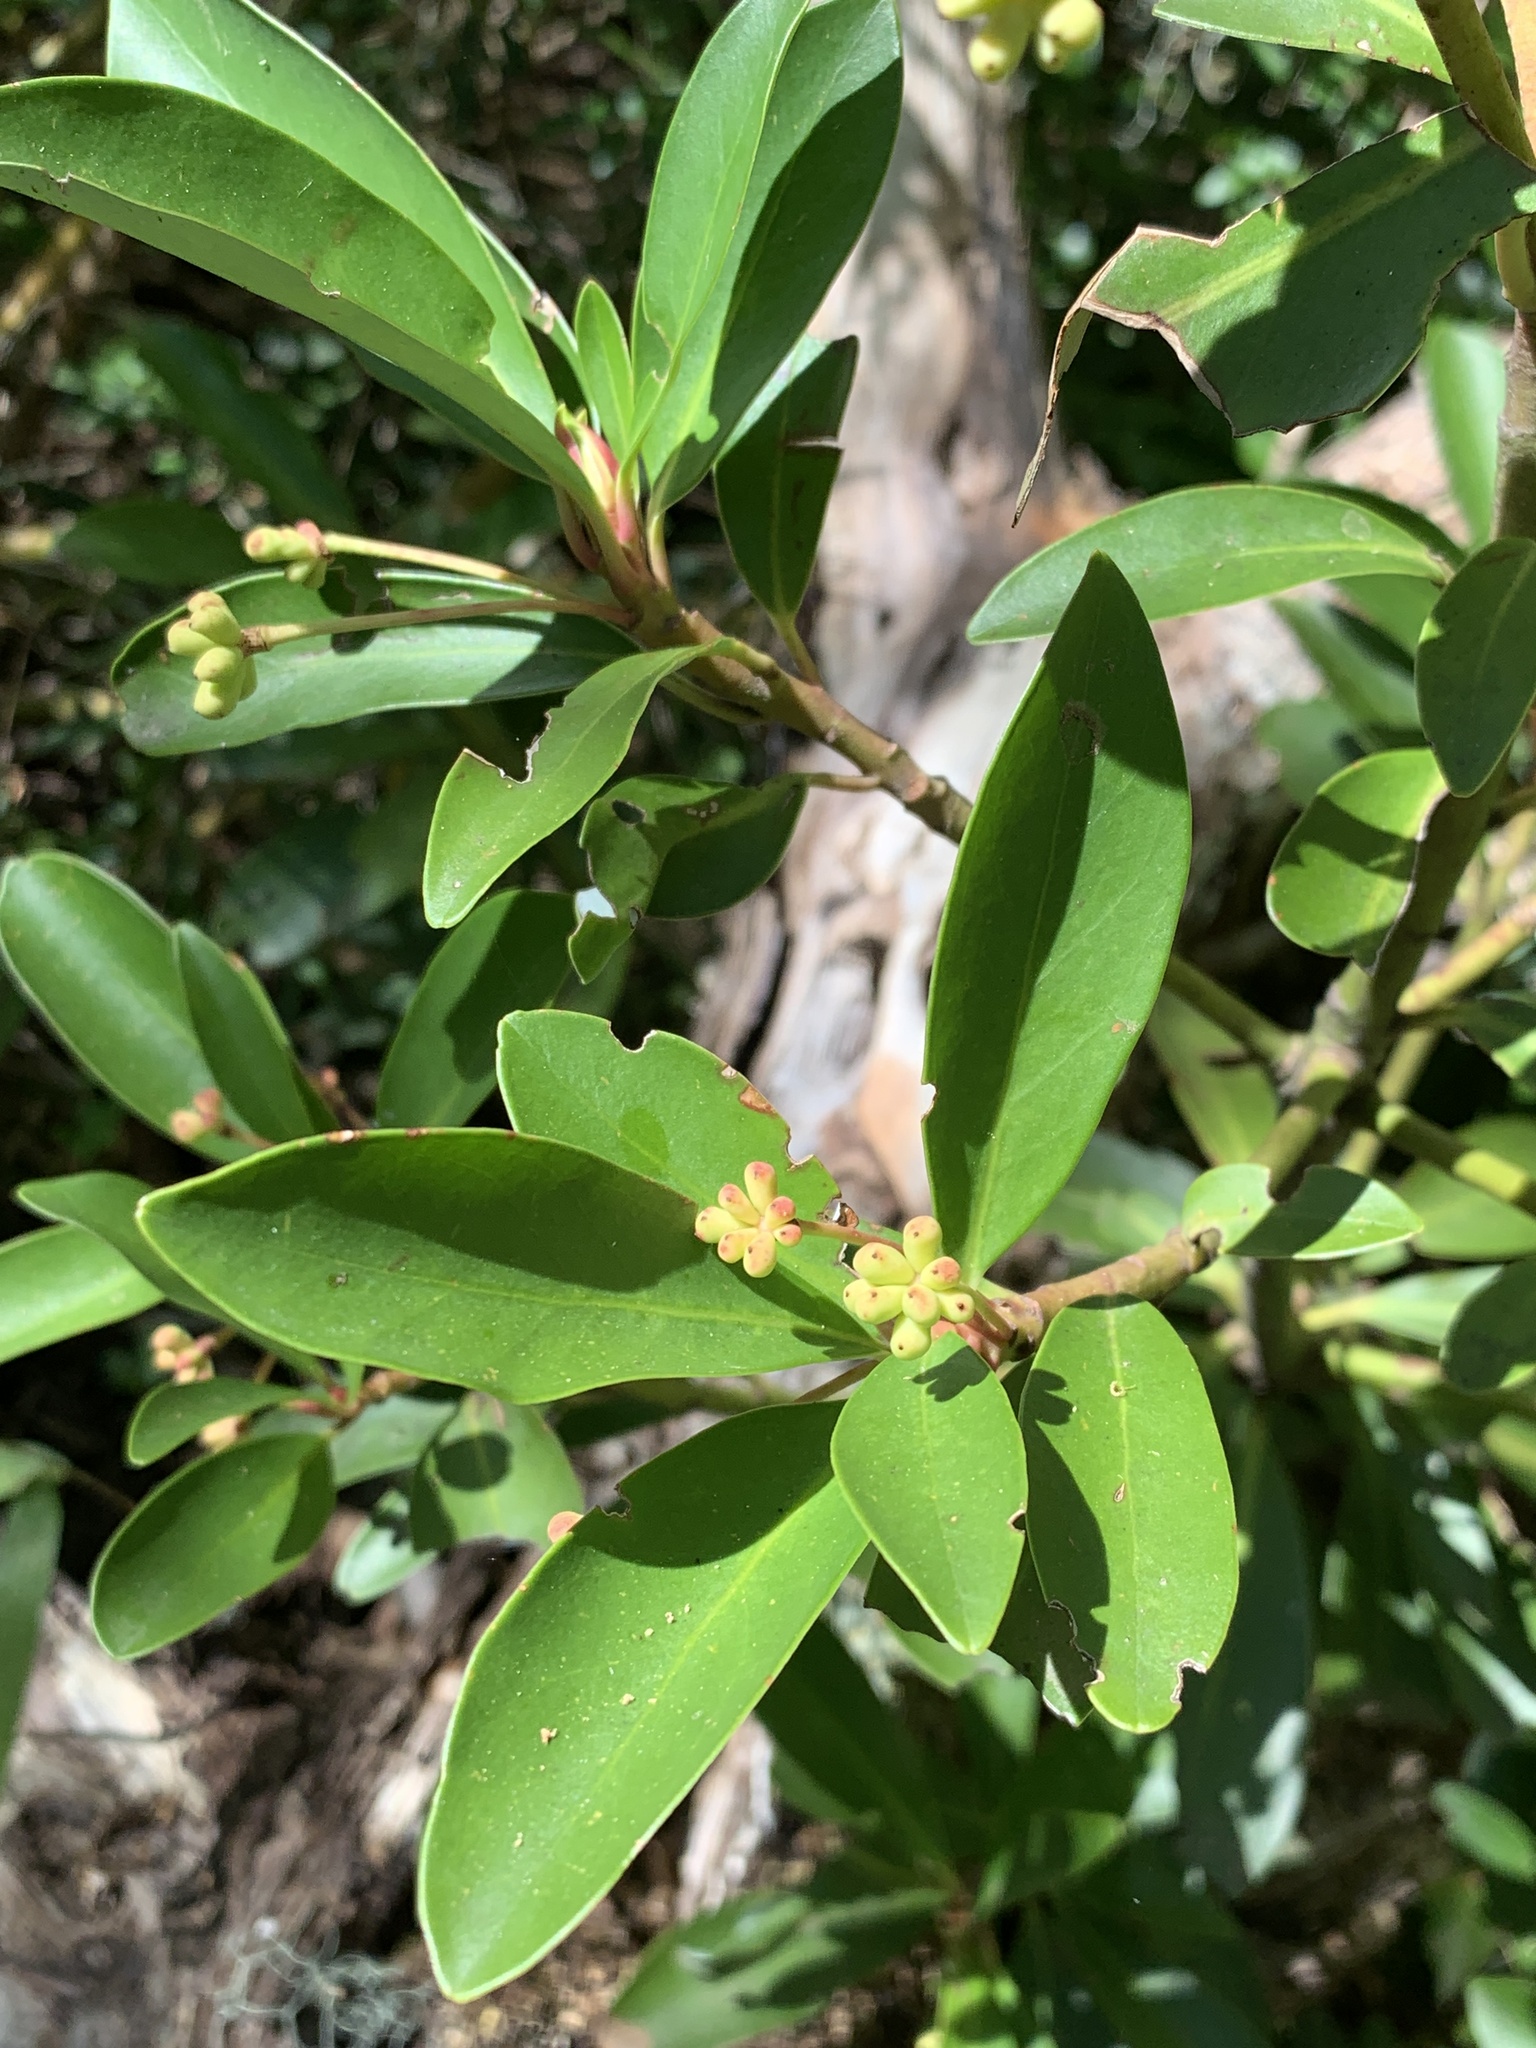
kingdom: Plantae
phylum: Tracheophyta
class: Magnoliopsida
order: Canellales
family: Winteraceae
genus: Drimys
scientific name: Drimys andina
